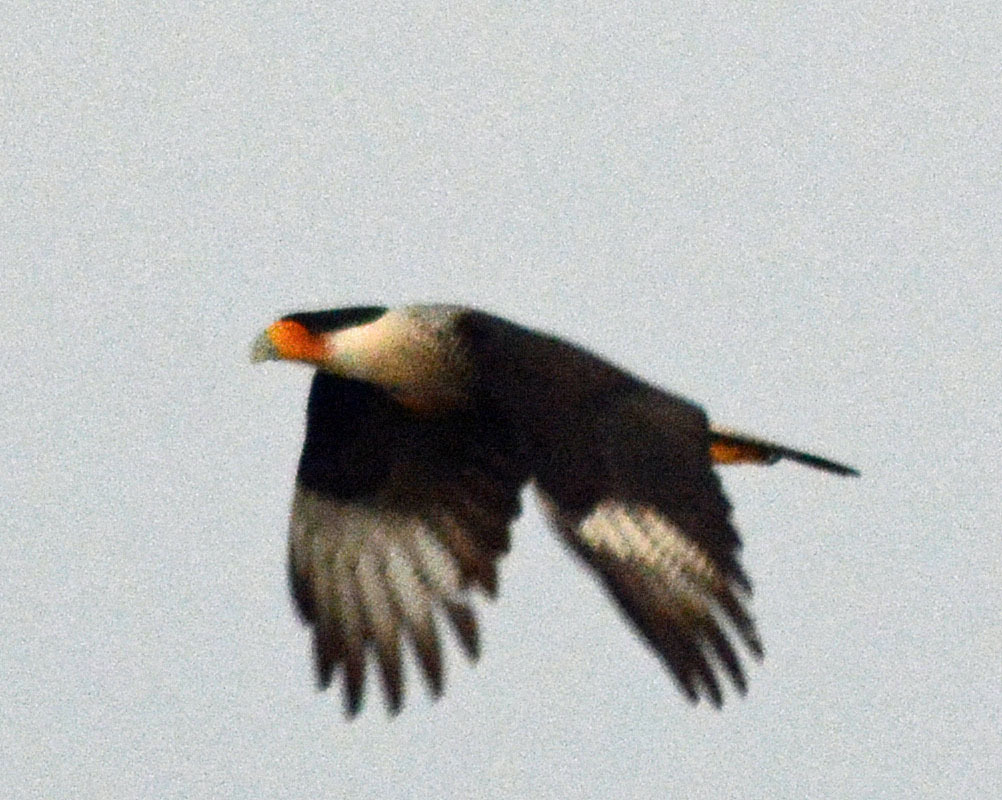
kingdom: Animalia
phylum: Chordata
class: Aves
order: Falconiformes
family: Falconidae
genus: Caracara
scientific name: Caracara plancus
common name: Southern caracara
